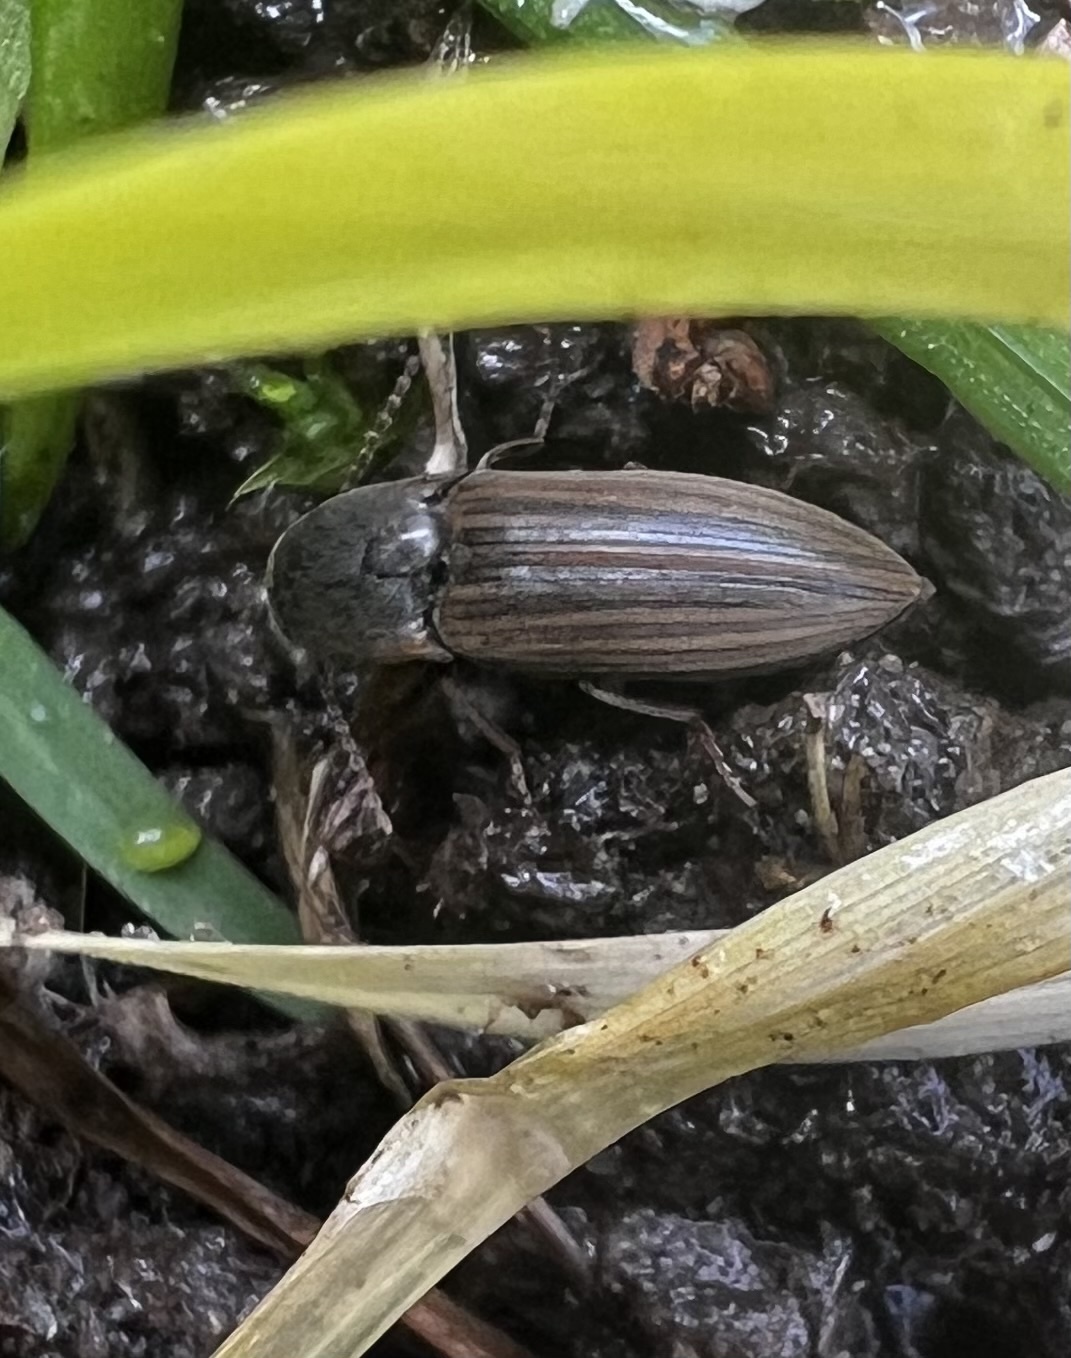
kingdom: Animalia
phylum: Arthropoda
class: Insecta
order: Coleoptera
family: Elateridae
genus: Agriotes
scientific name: Agriotes lineatus
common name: Lined click beetle
